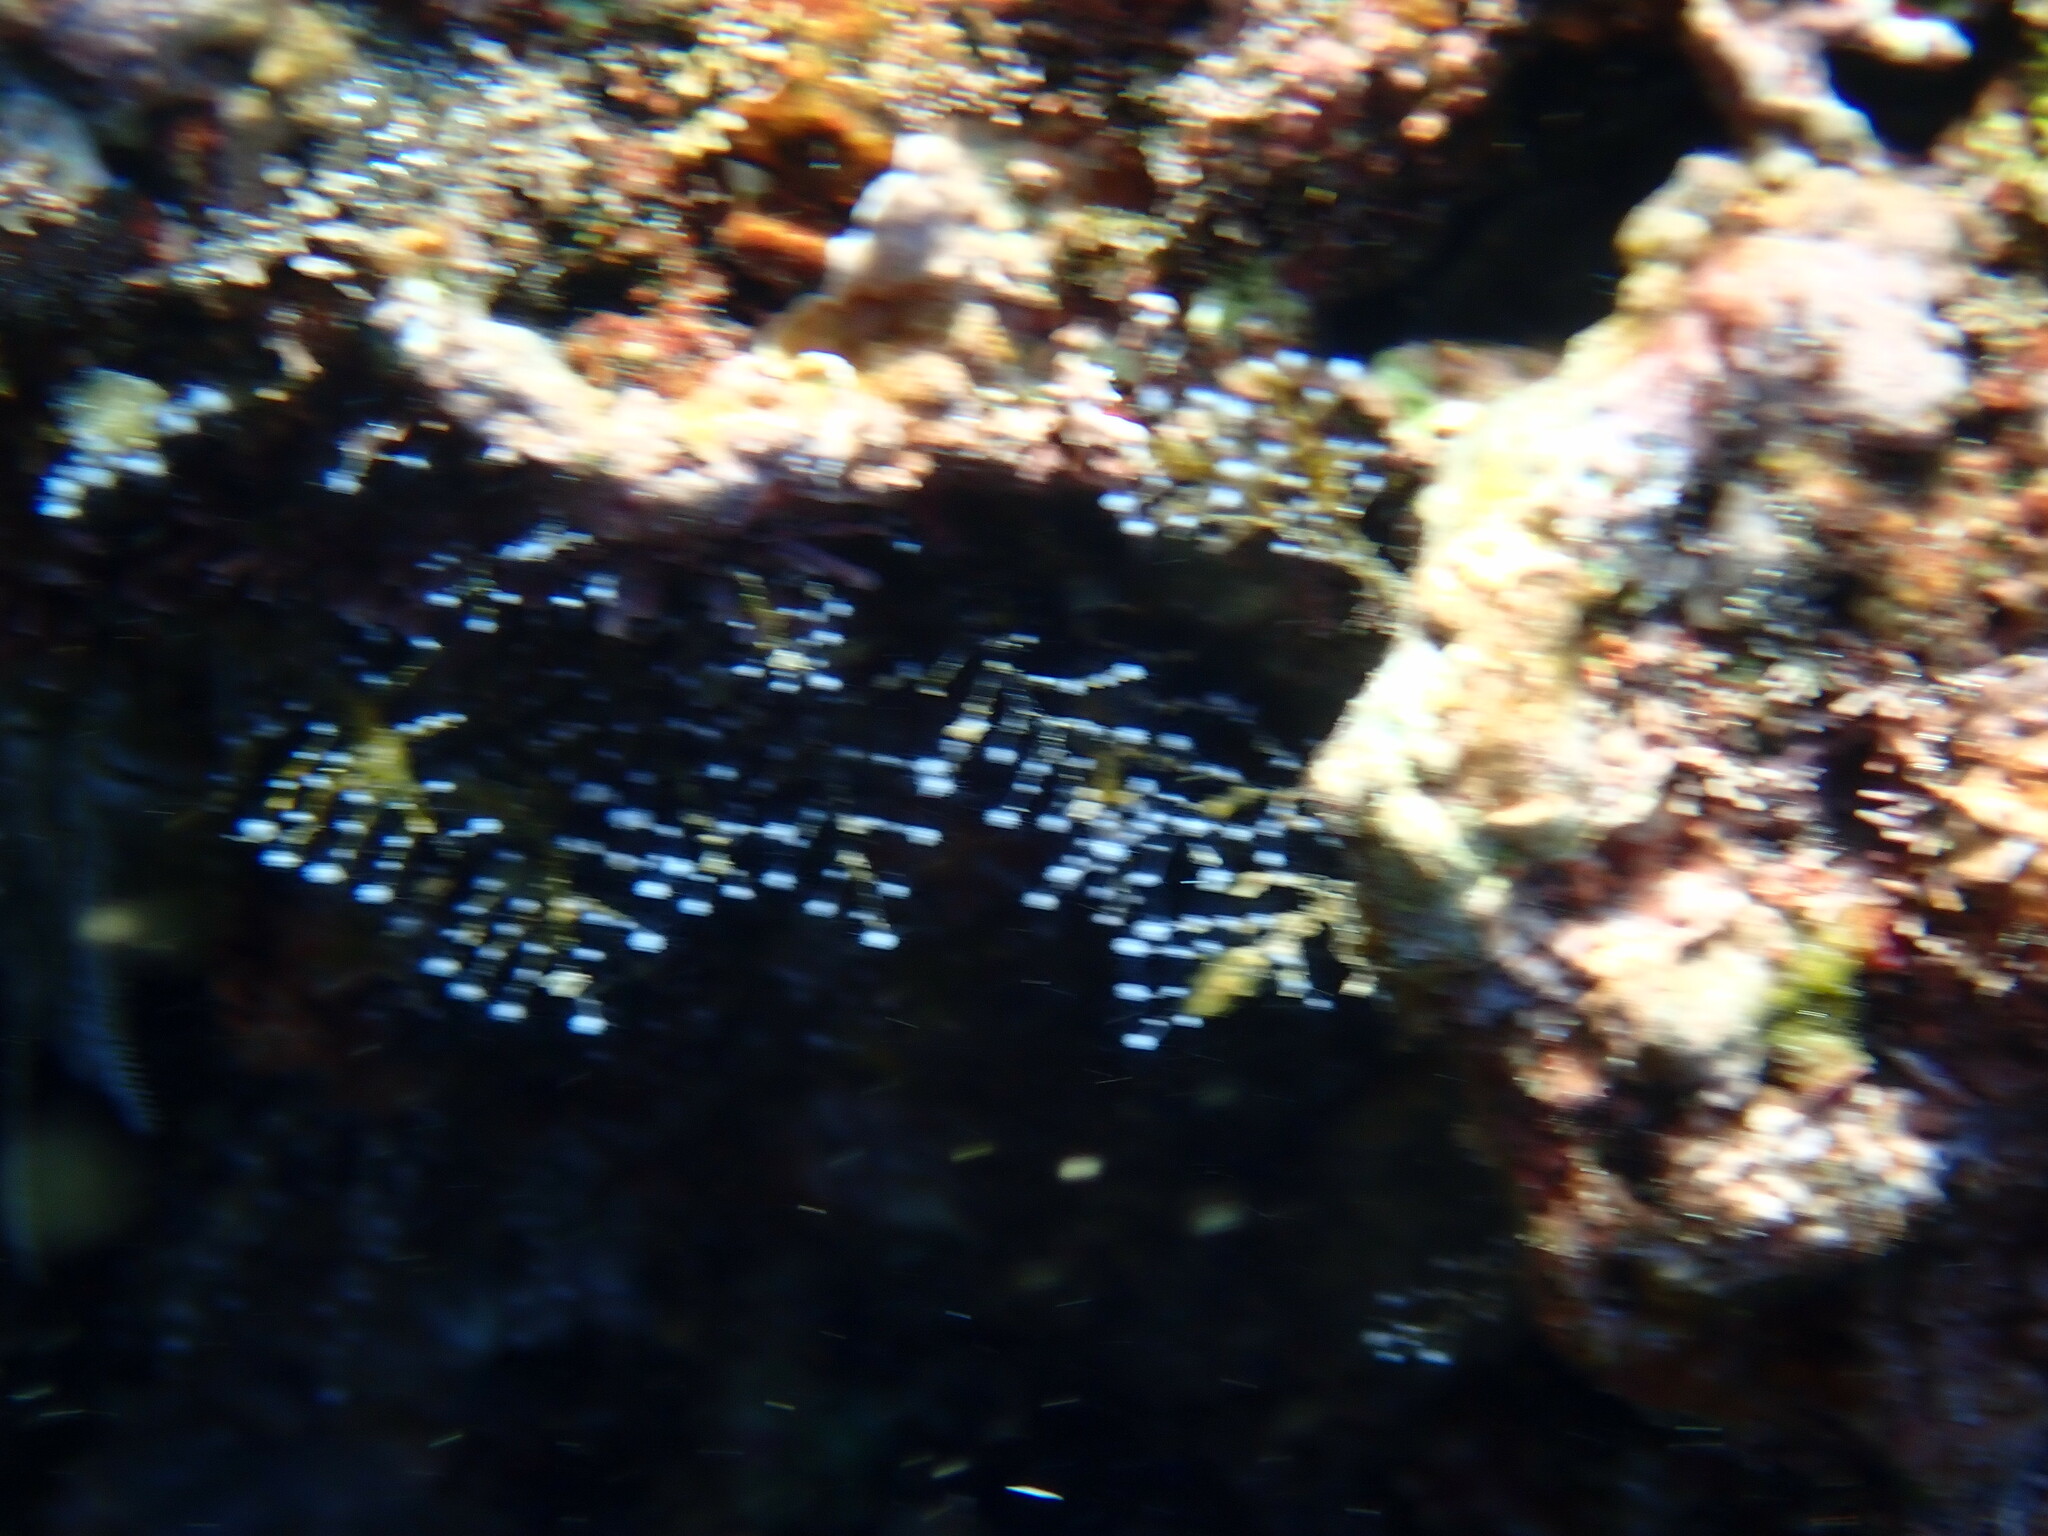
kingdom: Animalia
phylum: Cnidaria
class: Hydrozoa
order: Anthoathecata
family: Pennariidae
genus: Pennaria
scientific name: Pennaria disticha
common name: Feather hydroid
